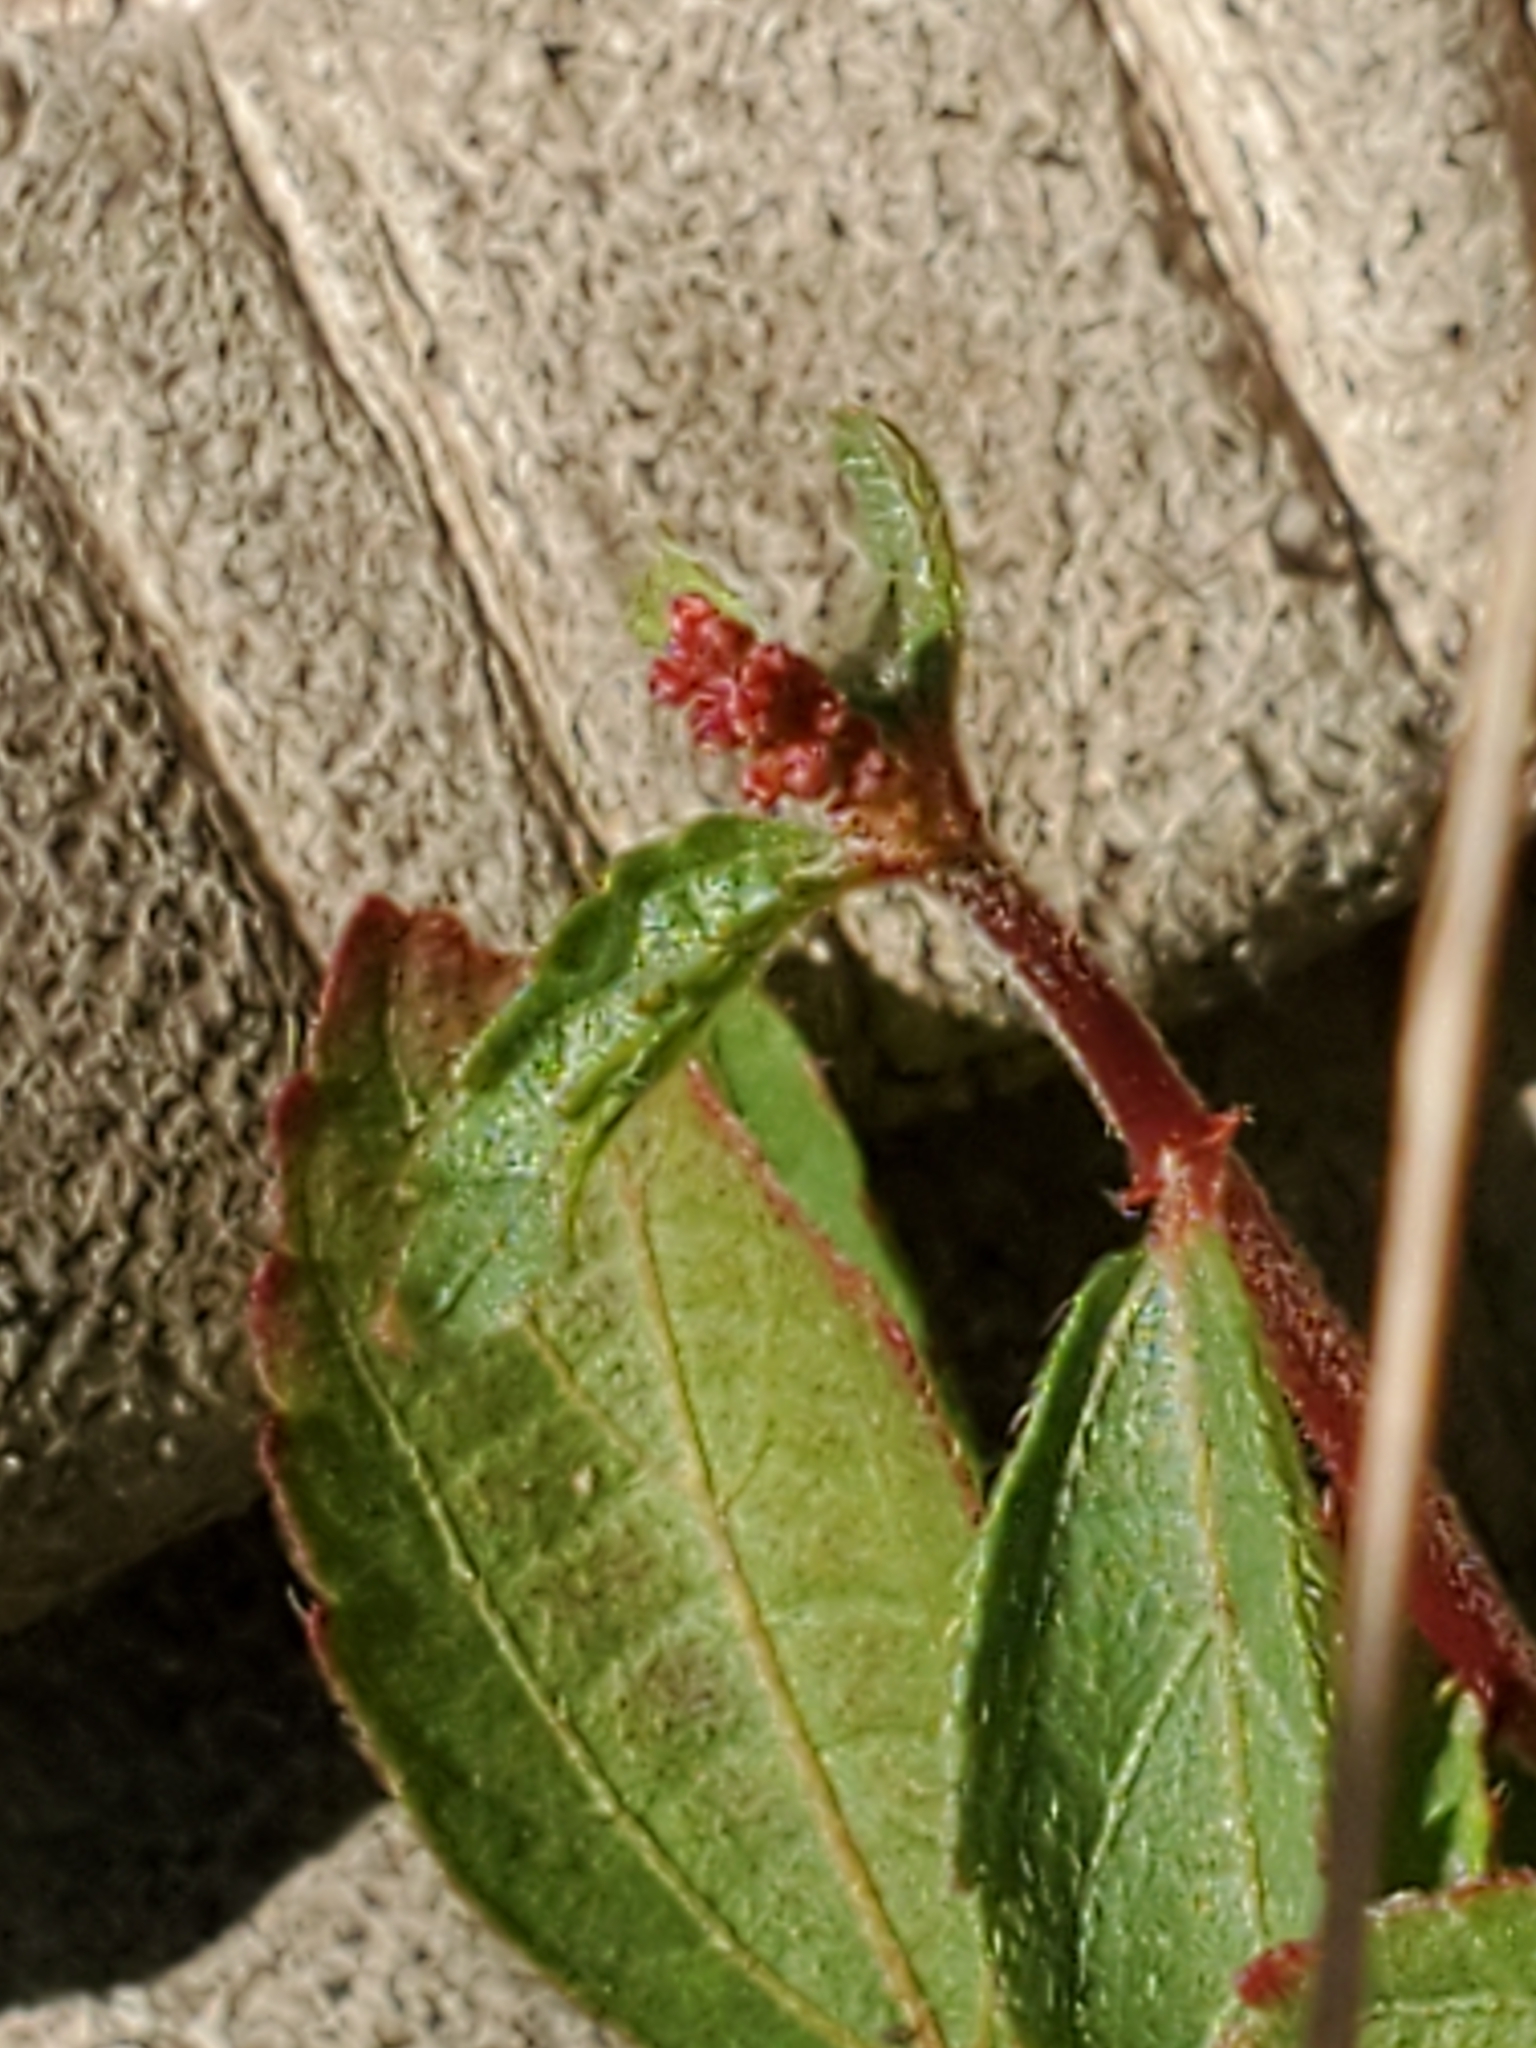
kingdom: Plantae
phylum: Tracheophyta
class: Magnoliopsida
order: Malpighiales
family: Euphorbiaceae
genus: Acalypha
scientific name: Acalypha phleoides
